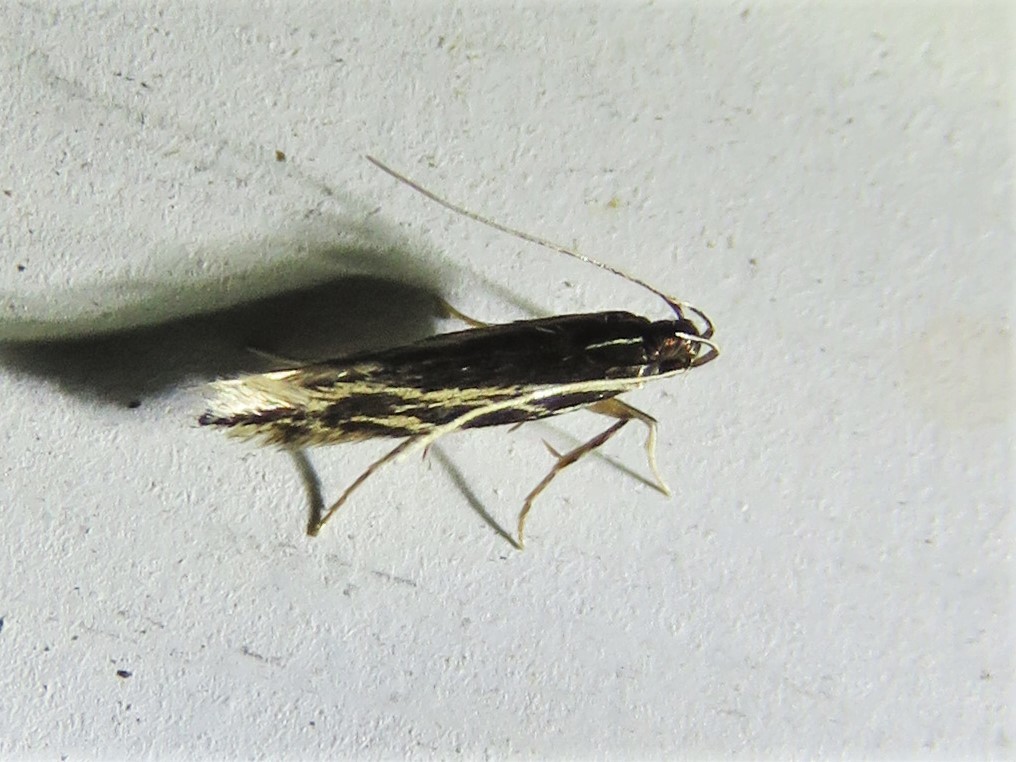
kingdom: Animalia
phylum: Arthropoda
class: Insecta
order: Lepidoptera
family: Cosmopterigidae
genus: Eralea
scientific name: Eralea albalineella
